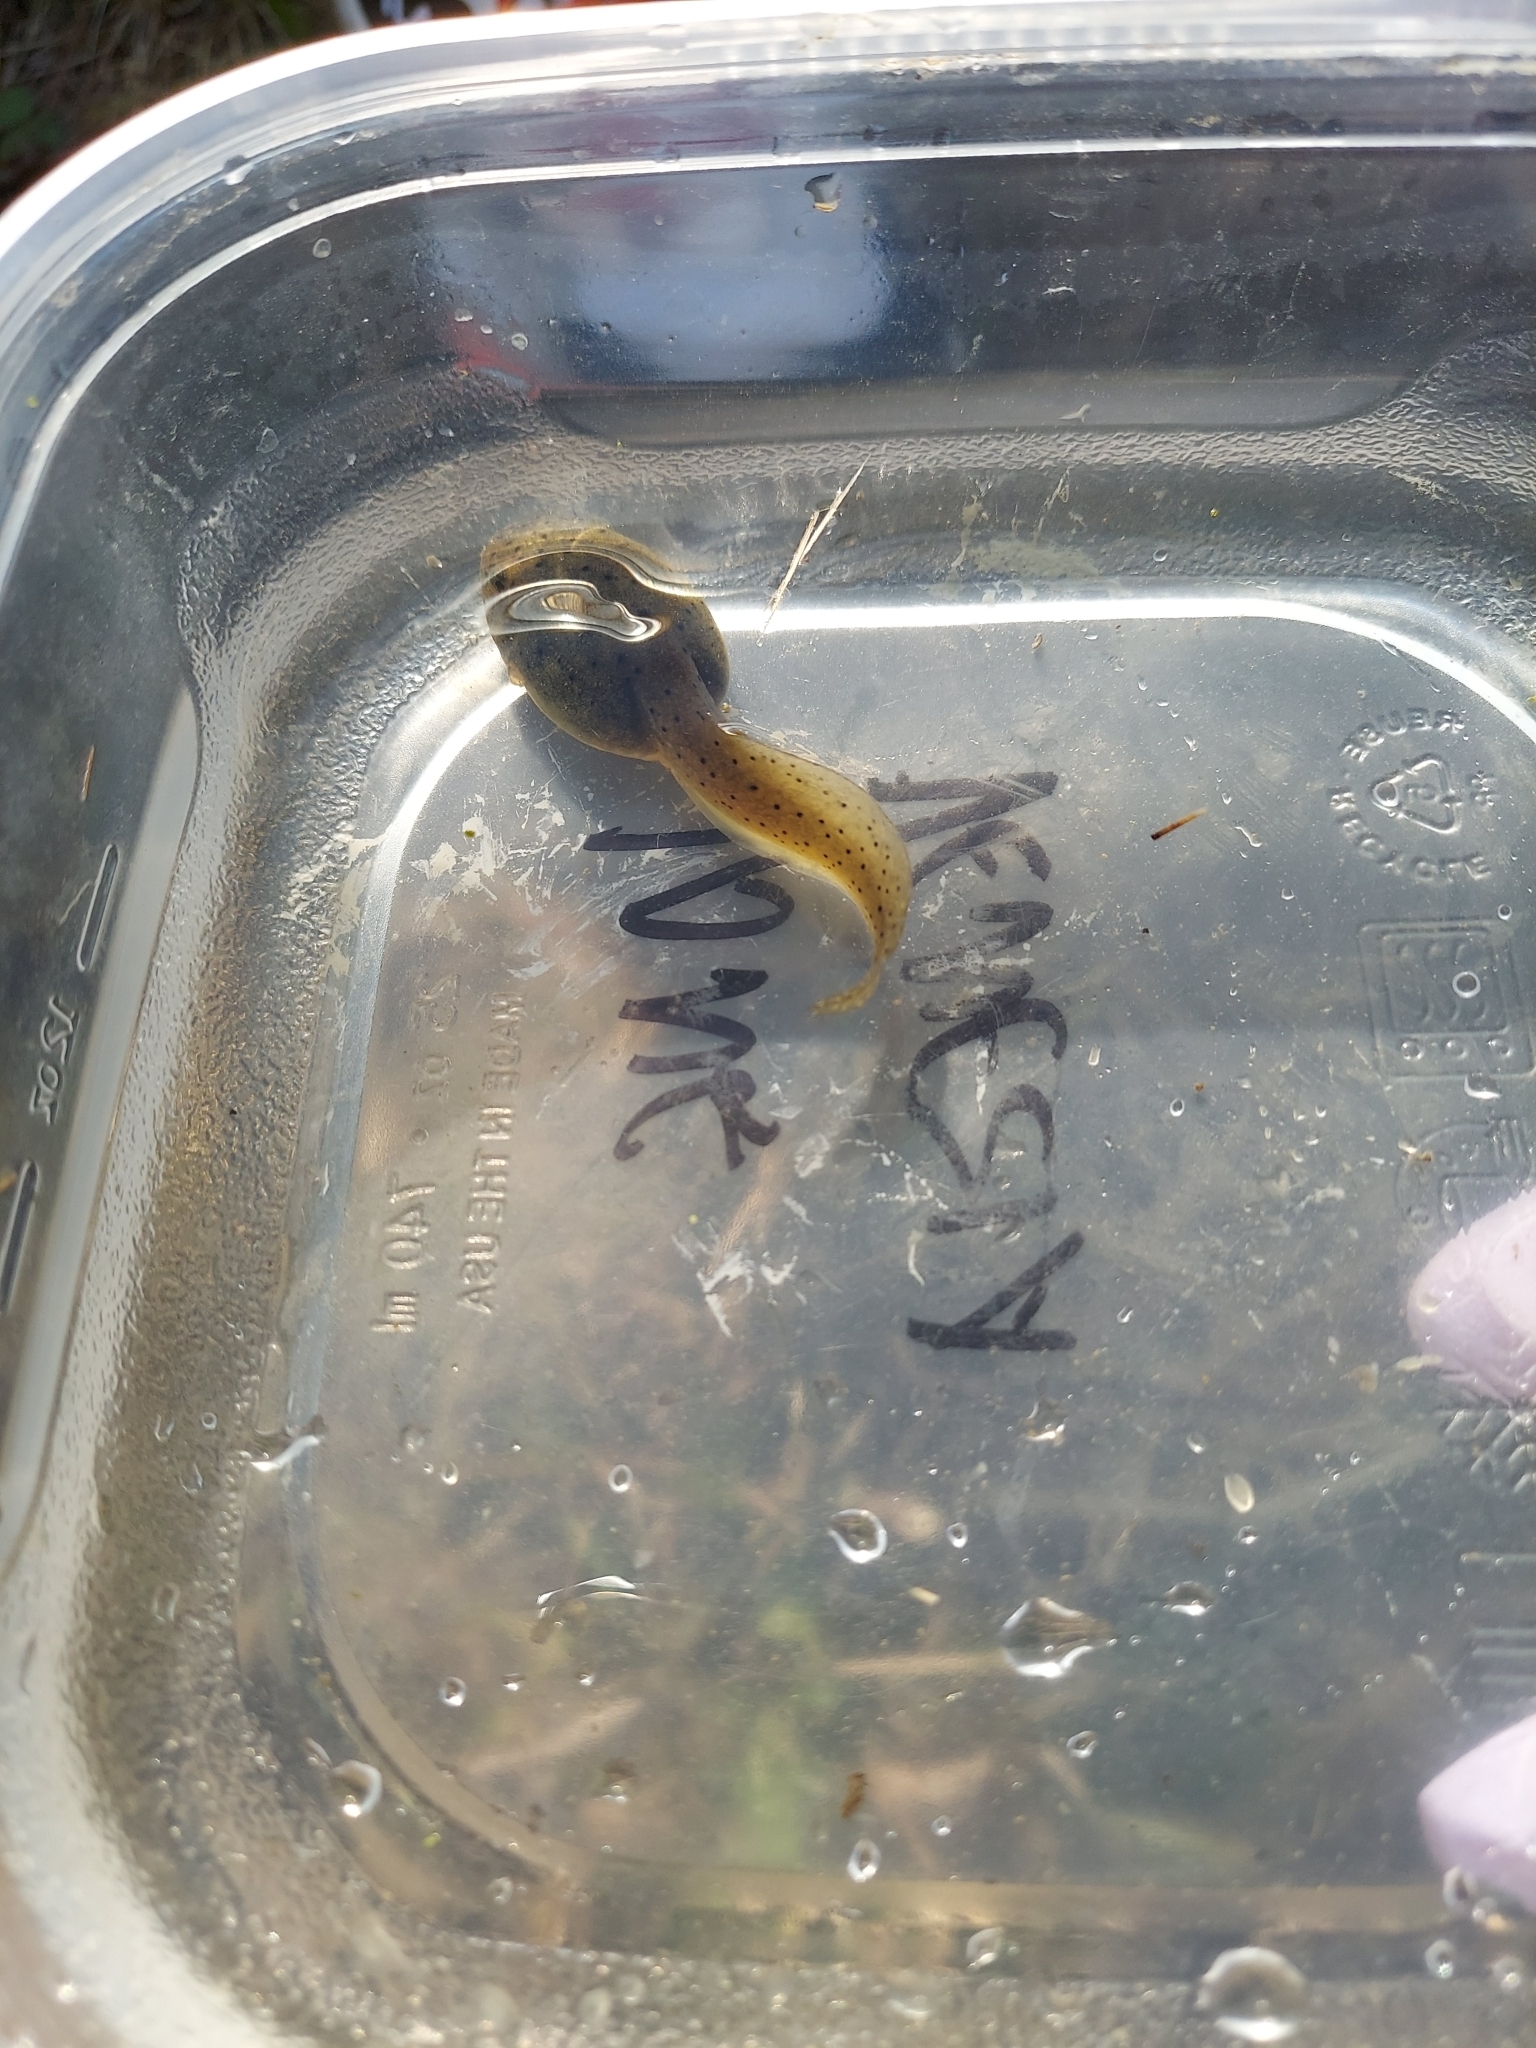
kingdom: Animalia
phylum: Chordata
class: Amphibia
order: Anura
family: Ranidae
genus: Lithobates
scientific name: Lithobates catesbeianus
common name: American bullfrog
